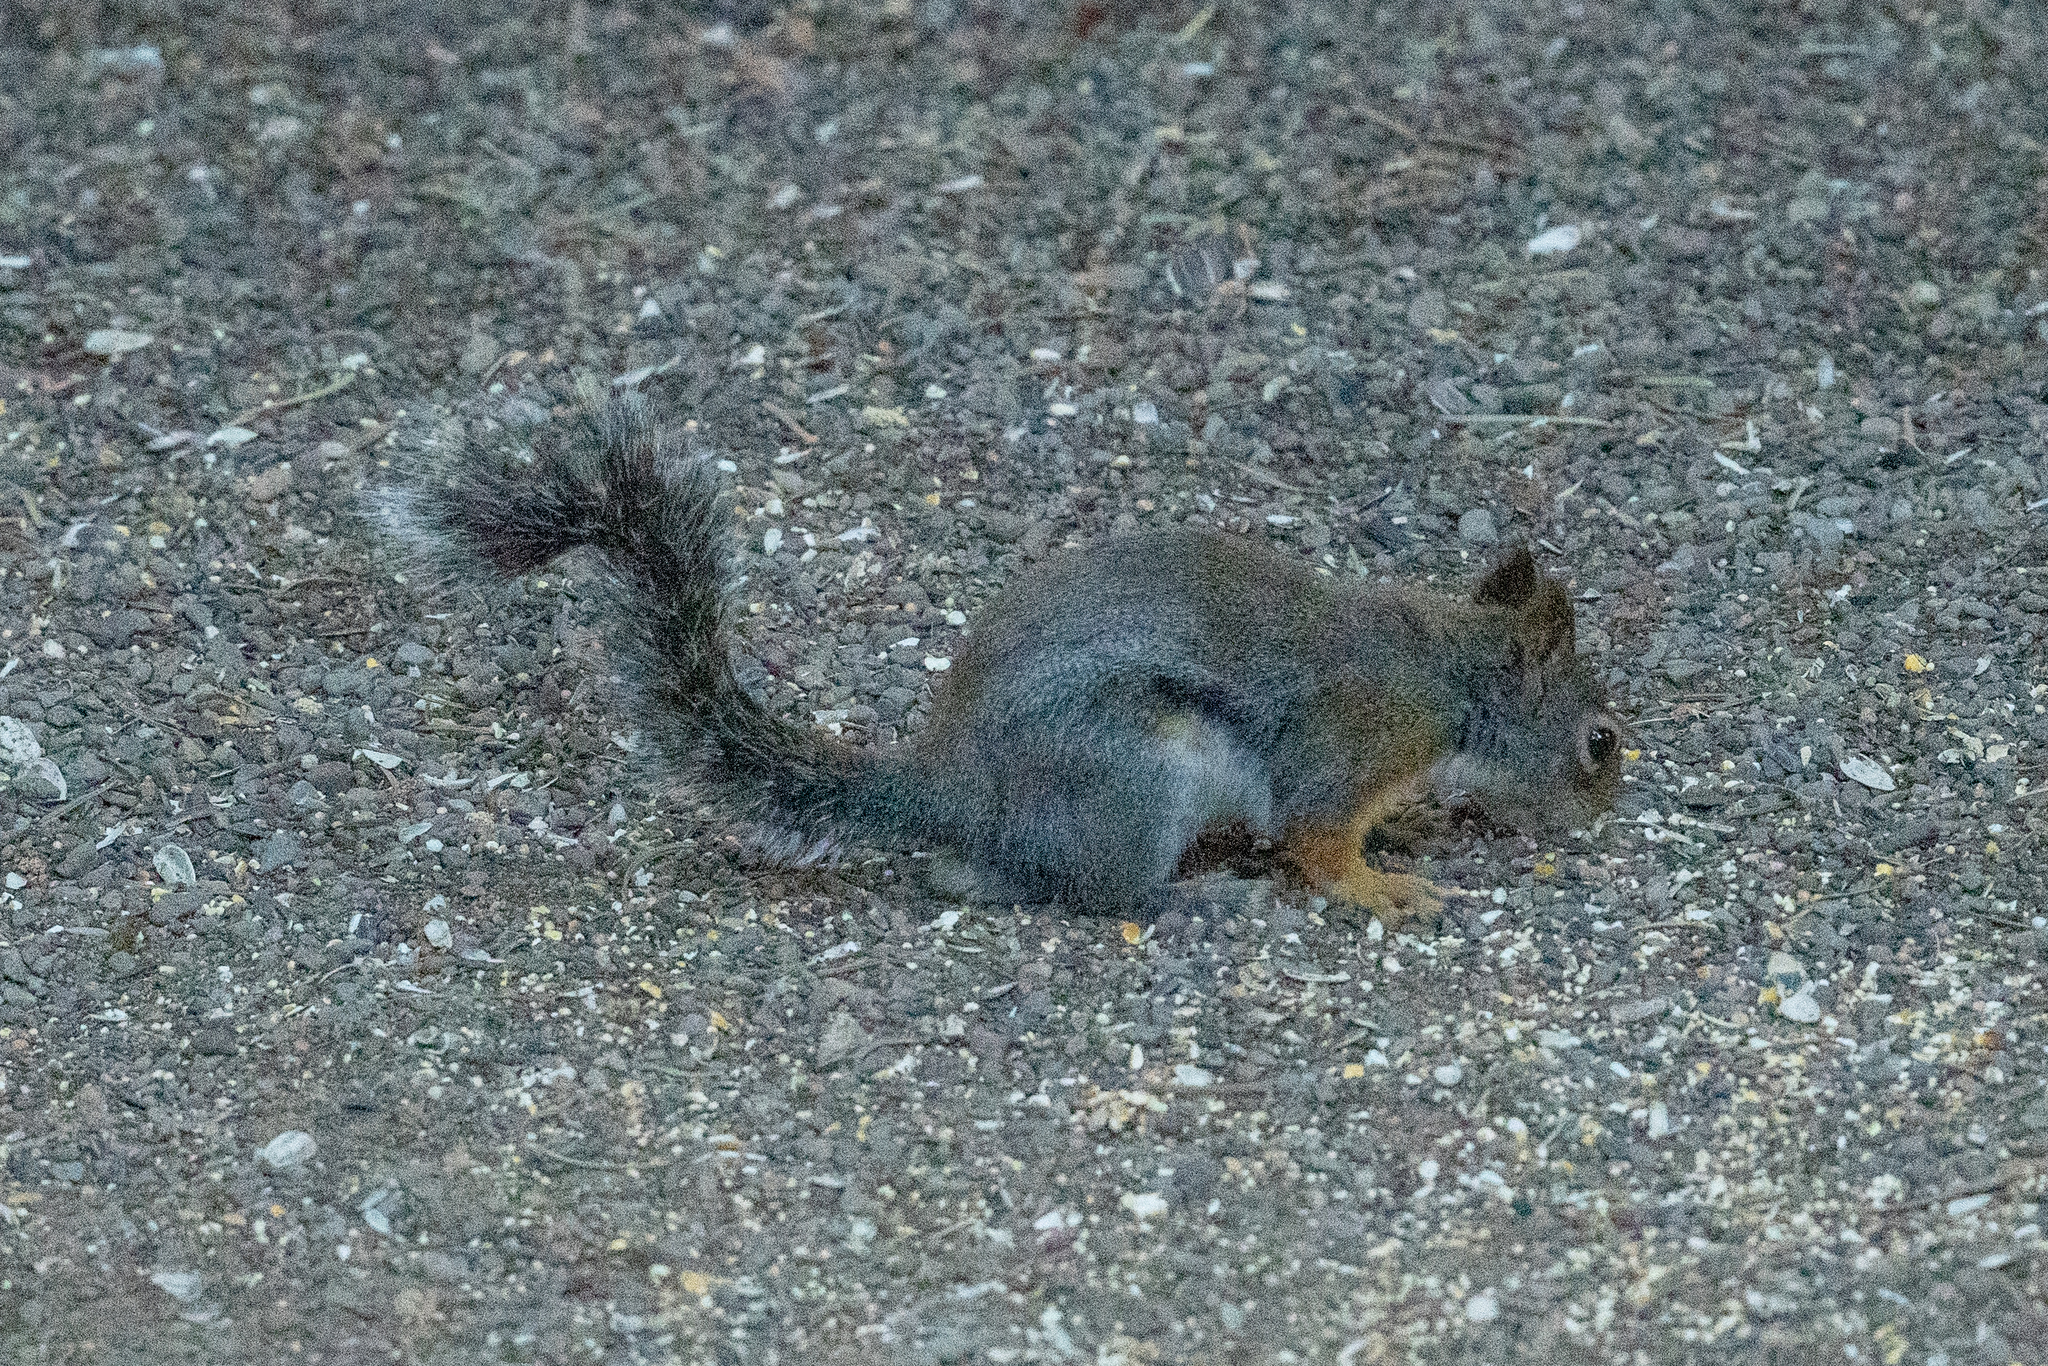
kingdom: Animalia
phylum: Chordata
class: Mammalia
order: Rodentia
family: Sciuridae
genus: Tamiasciurus
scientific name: Tamiasciurus douglasii
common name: Douglas's squirrel
